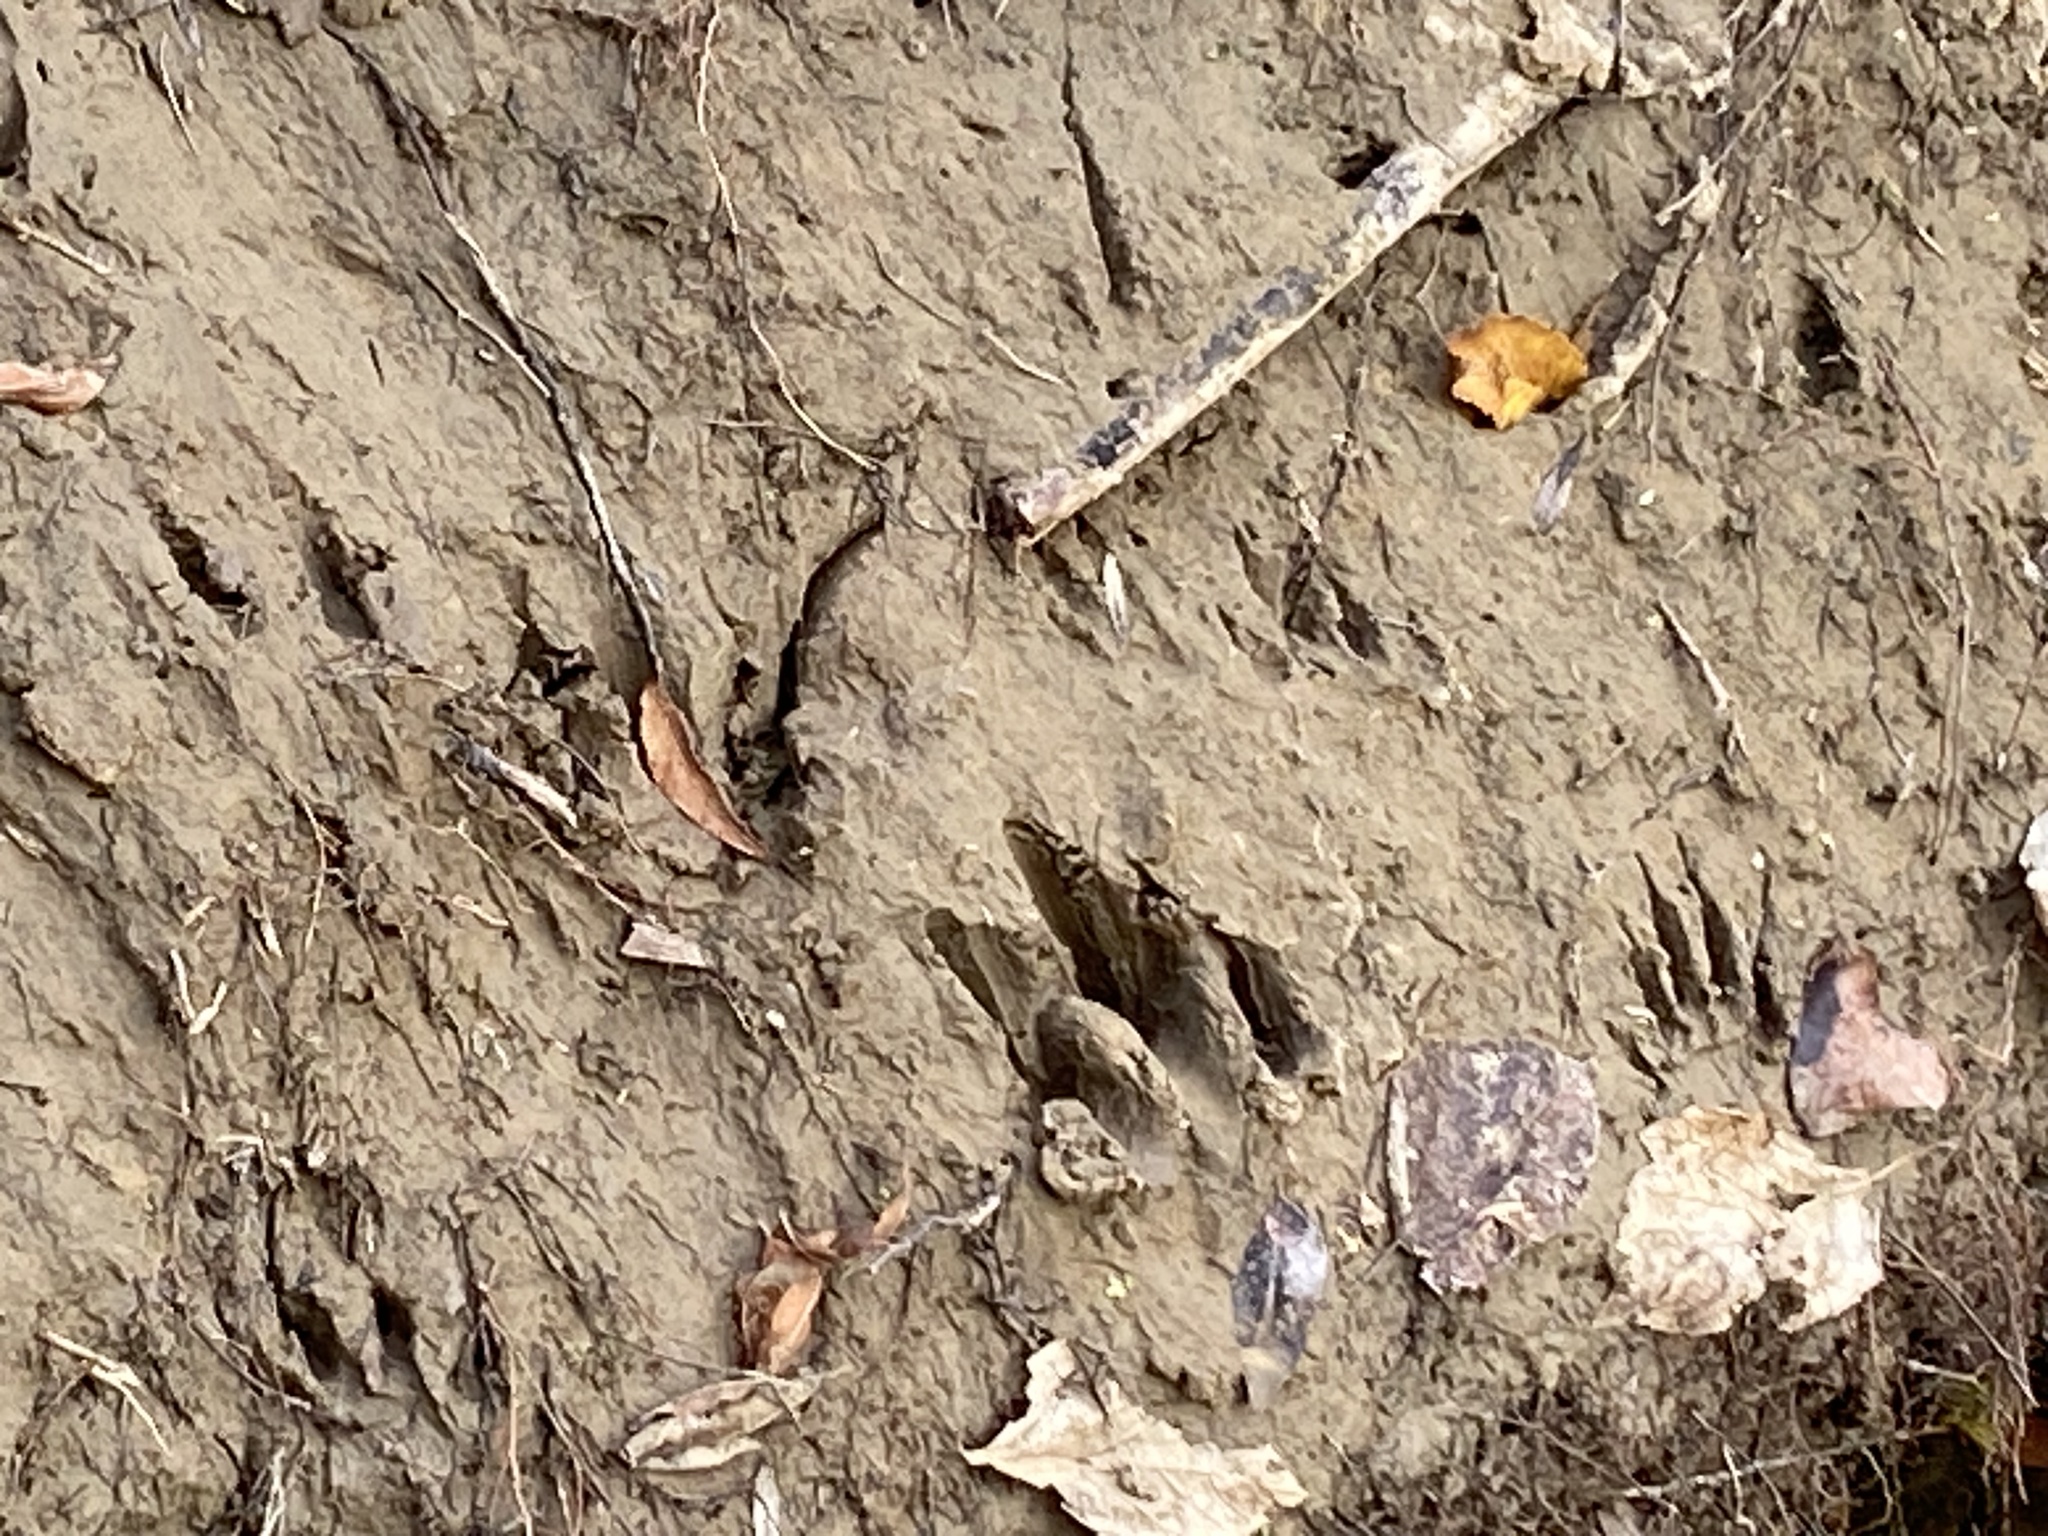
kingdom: Animalia
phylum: Chordata
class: Mammalia
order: Carnivora
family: Procyonidae
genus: Procyon
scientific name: Procyon lotor
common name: Raccoon
